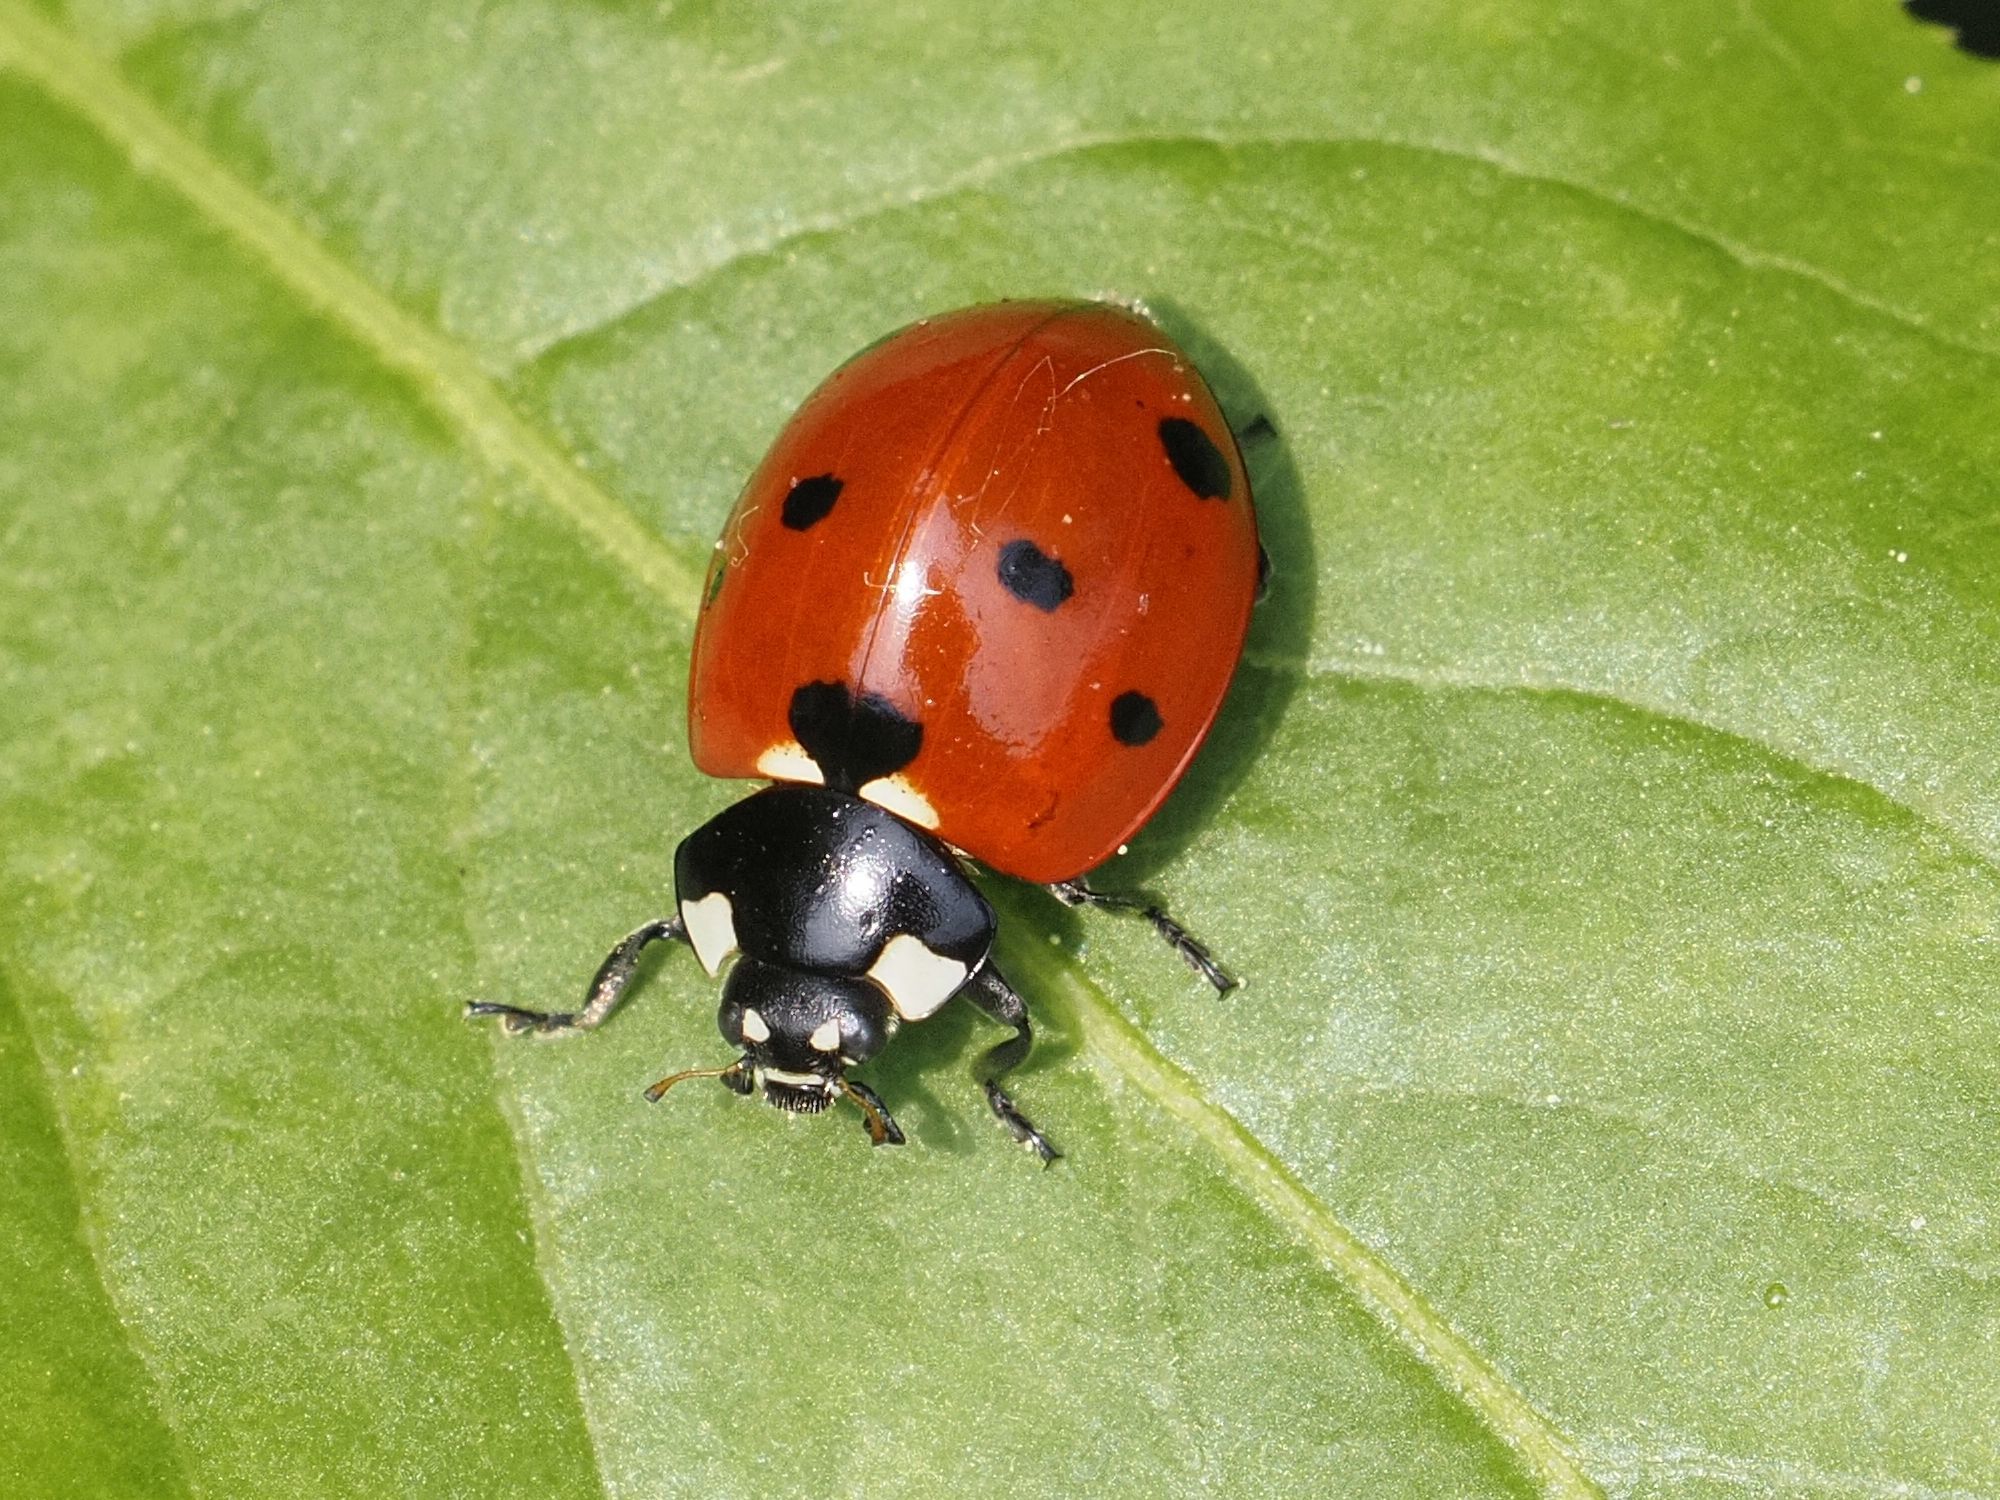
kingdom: Animalia
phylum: Arthropoda
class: Insecta
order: Coleoptera
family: Coccinellidae
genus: Coccinella
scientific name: Coccinella septempunctata
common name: Sevenspotted lady beetle
